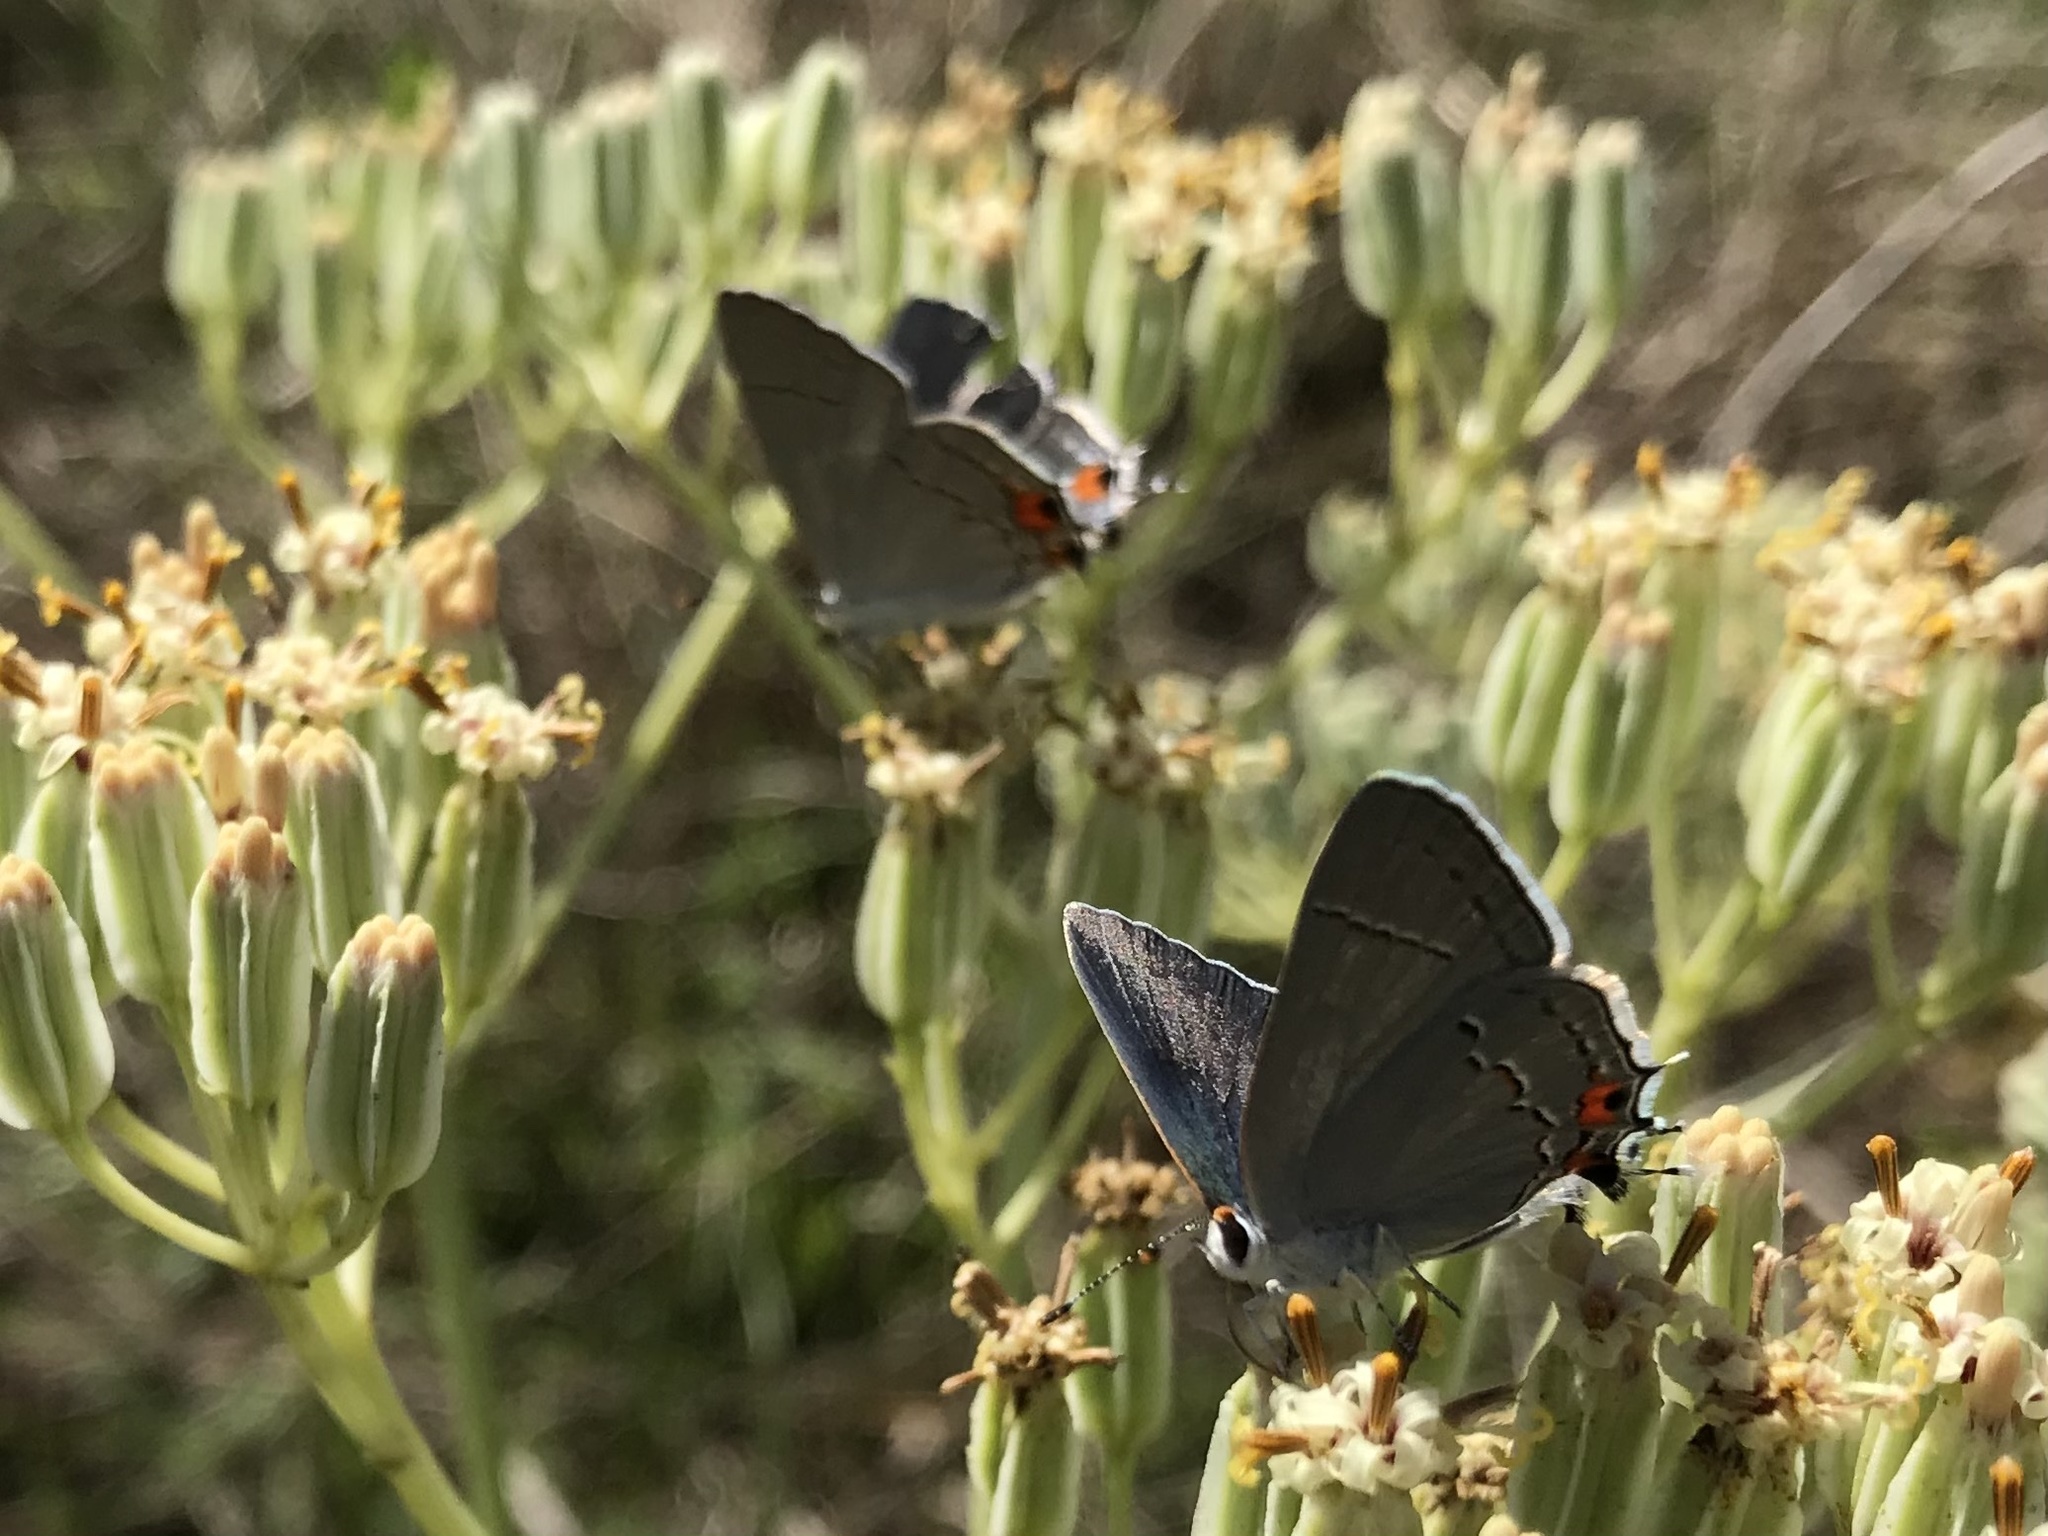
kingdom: Animalia
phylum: Arthropoda
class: Insecta
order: Lepidoptera
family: Lycaenidae
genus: Strymon
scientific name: Strymon melinus
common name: Gray hairstreak
